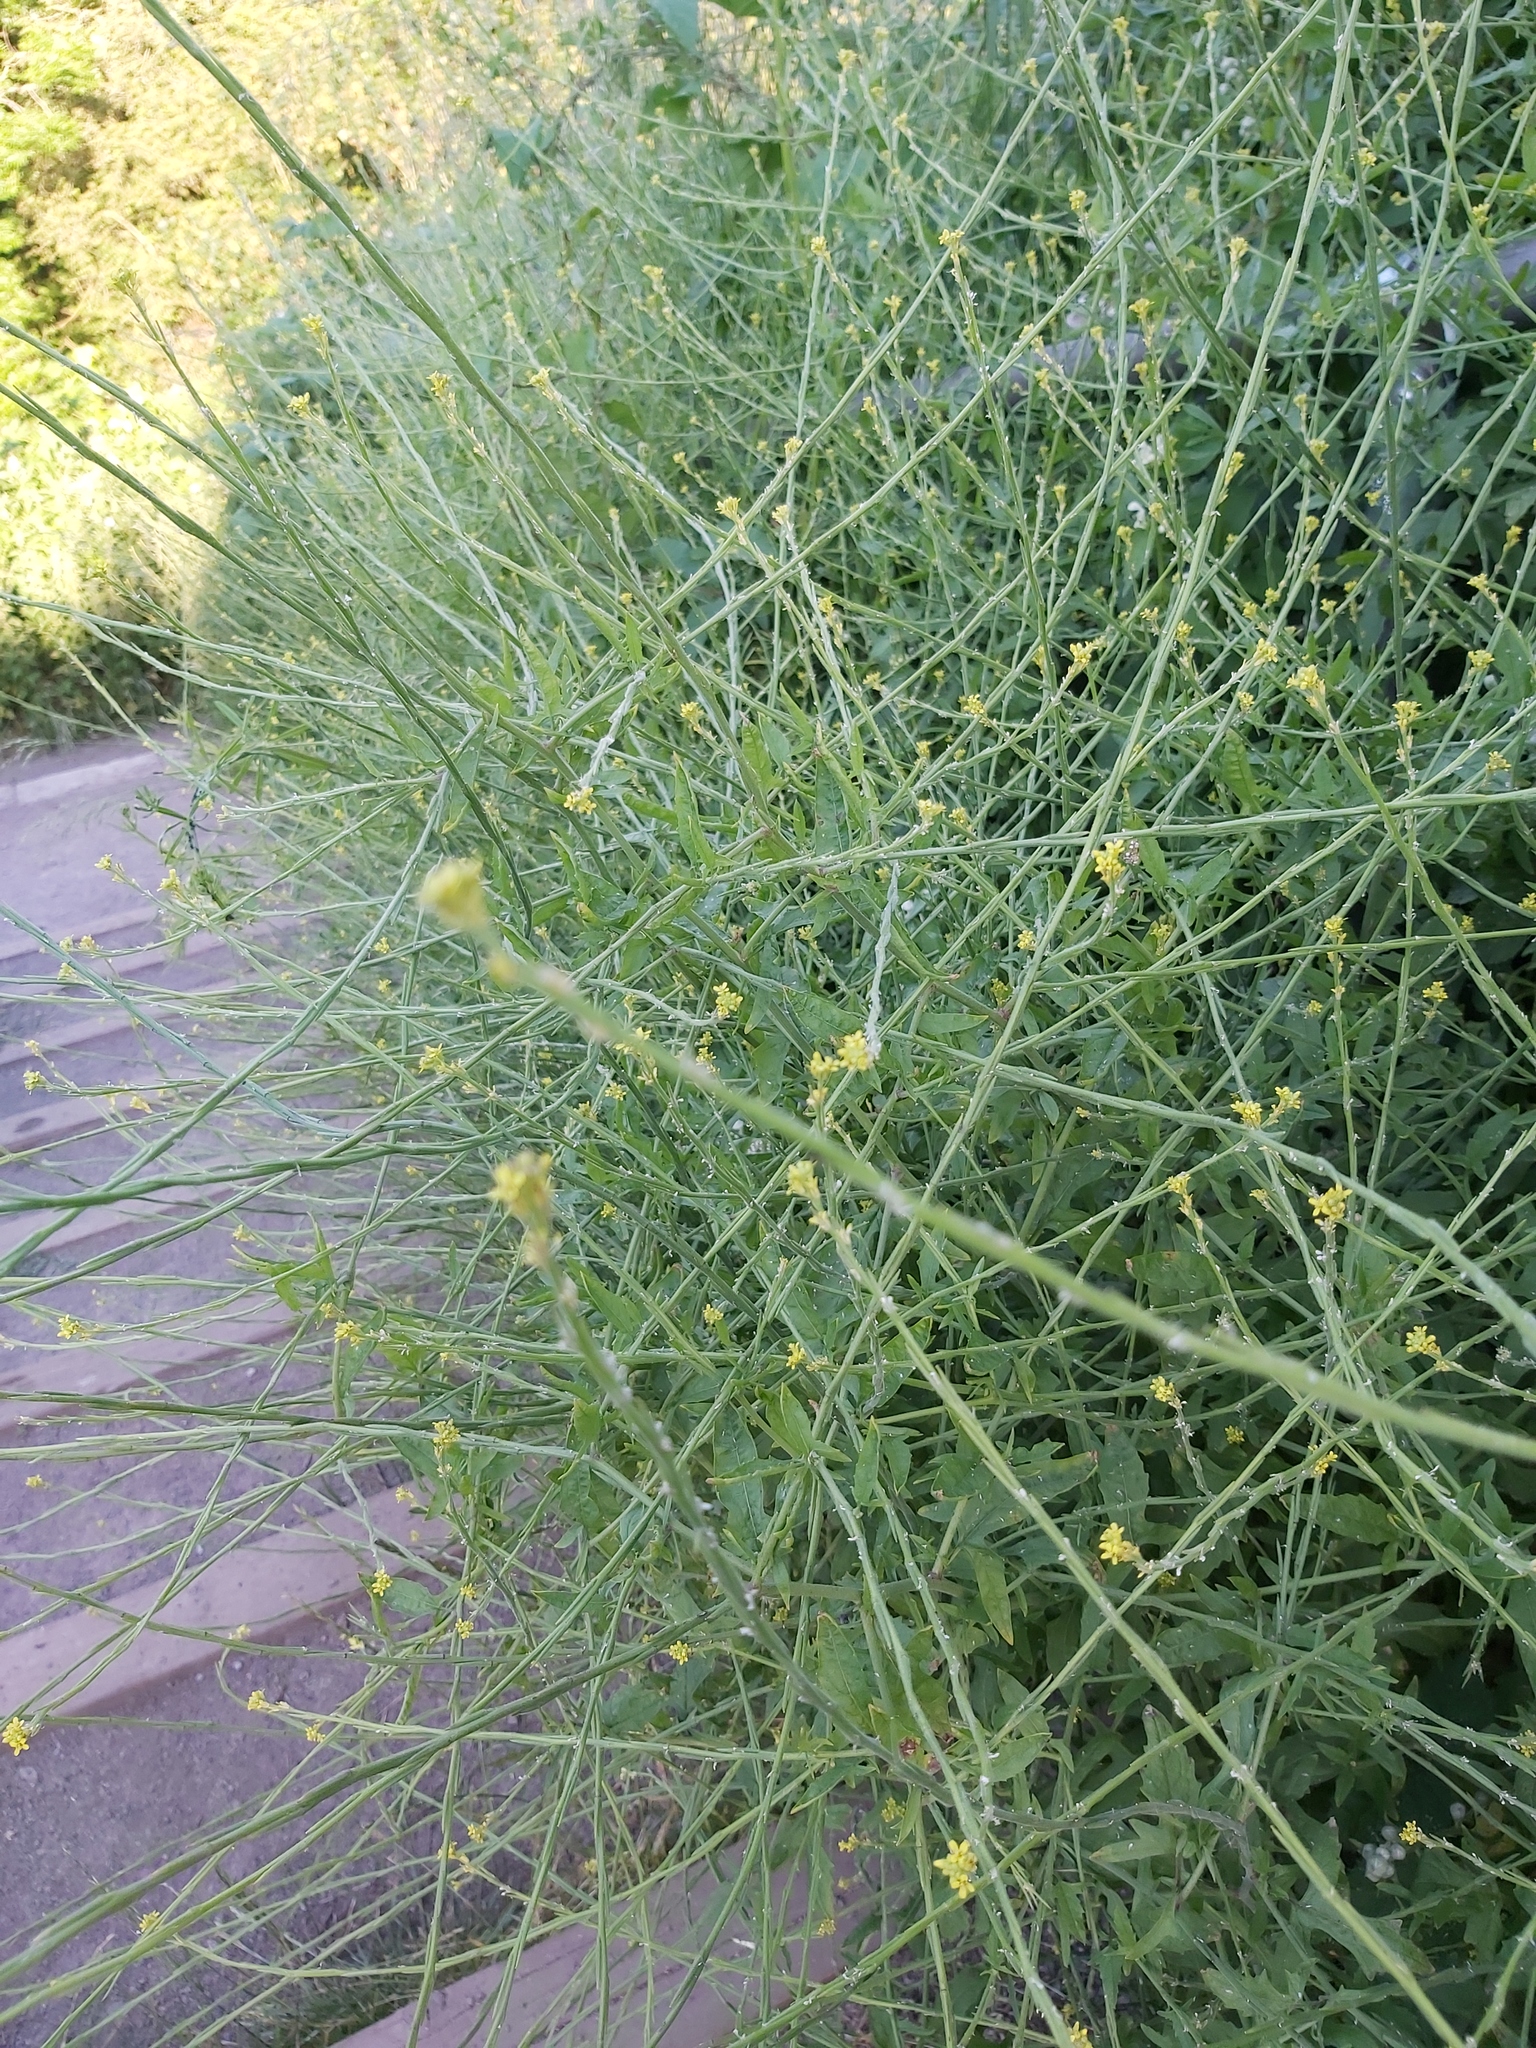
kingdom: Plantae
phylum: Tracheophyta
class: Magnoliopsida
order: Brassicales
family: Brassicaceae
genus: Sisymbrium
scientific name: Sisymbrium officinale
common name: Hedge mustard
